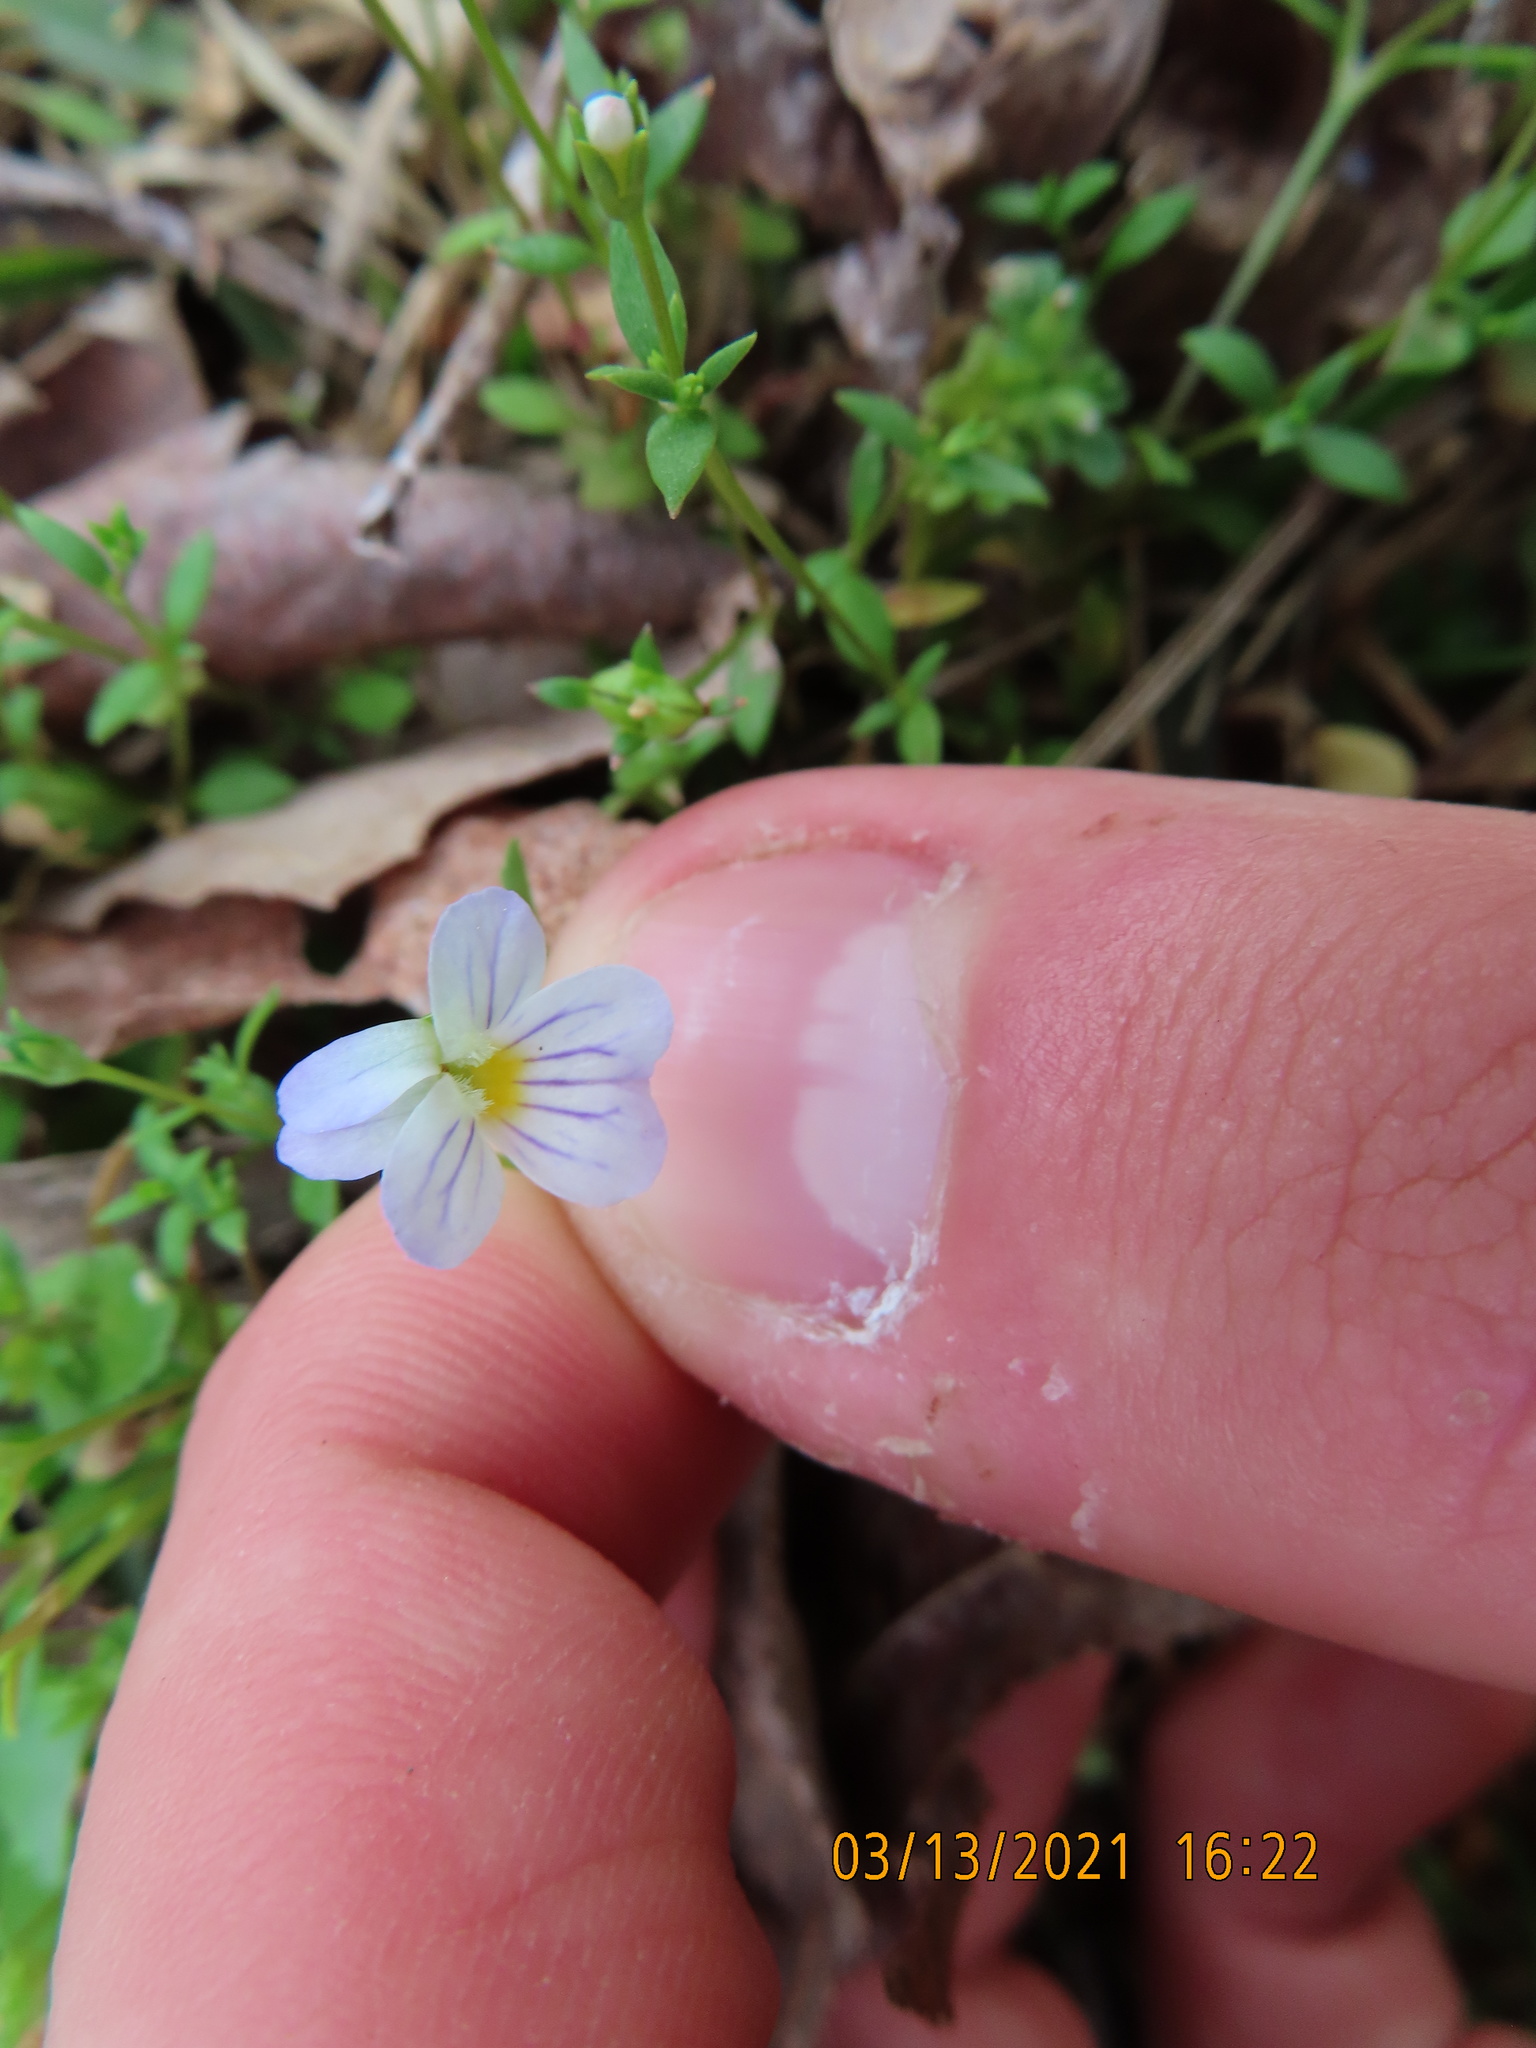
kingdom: Plantae
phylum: Tracheophyta
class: Magnoliopsida
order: Malpighiales
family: Violaceae
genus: Viola
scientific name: Viola rafinesquei
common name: American field pansy
